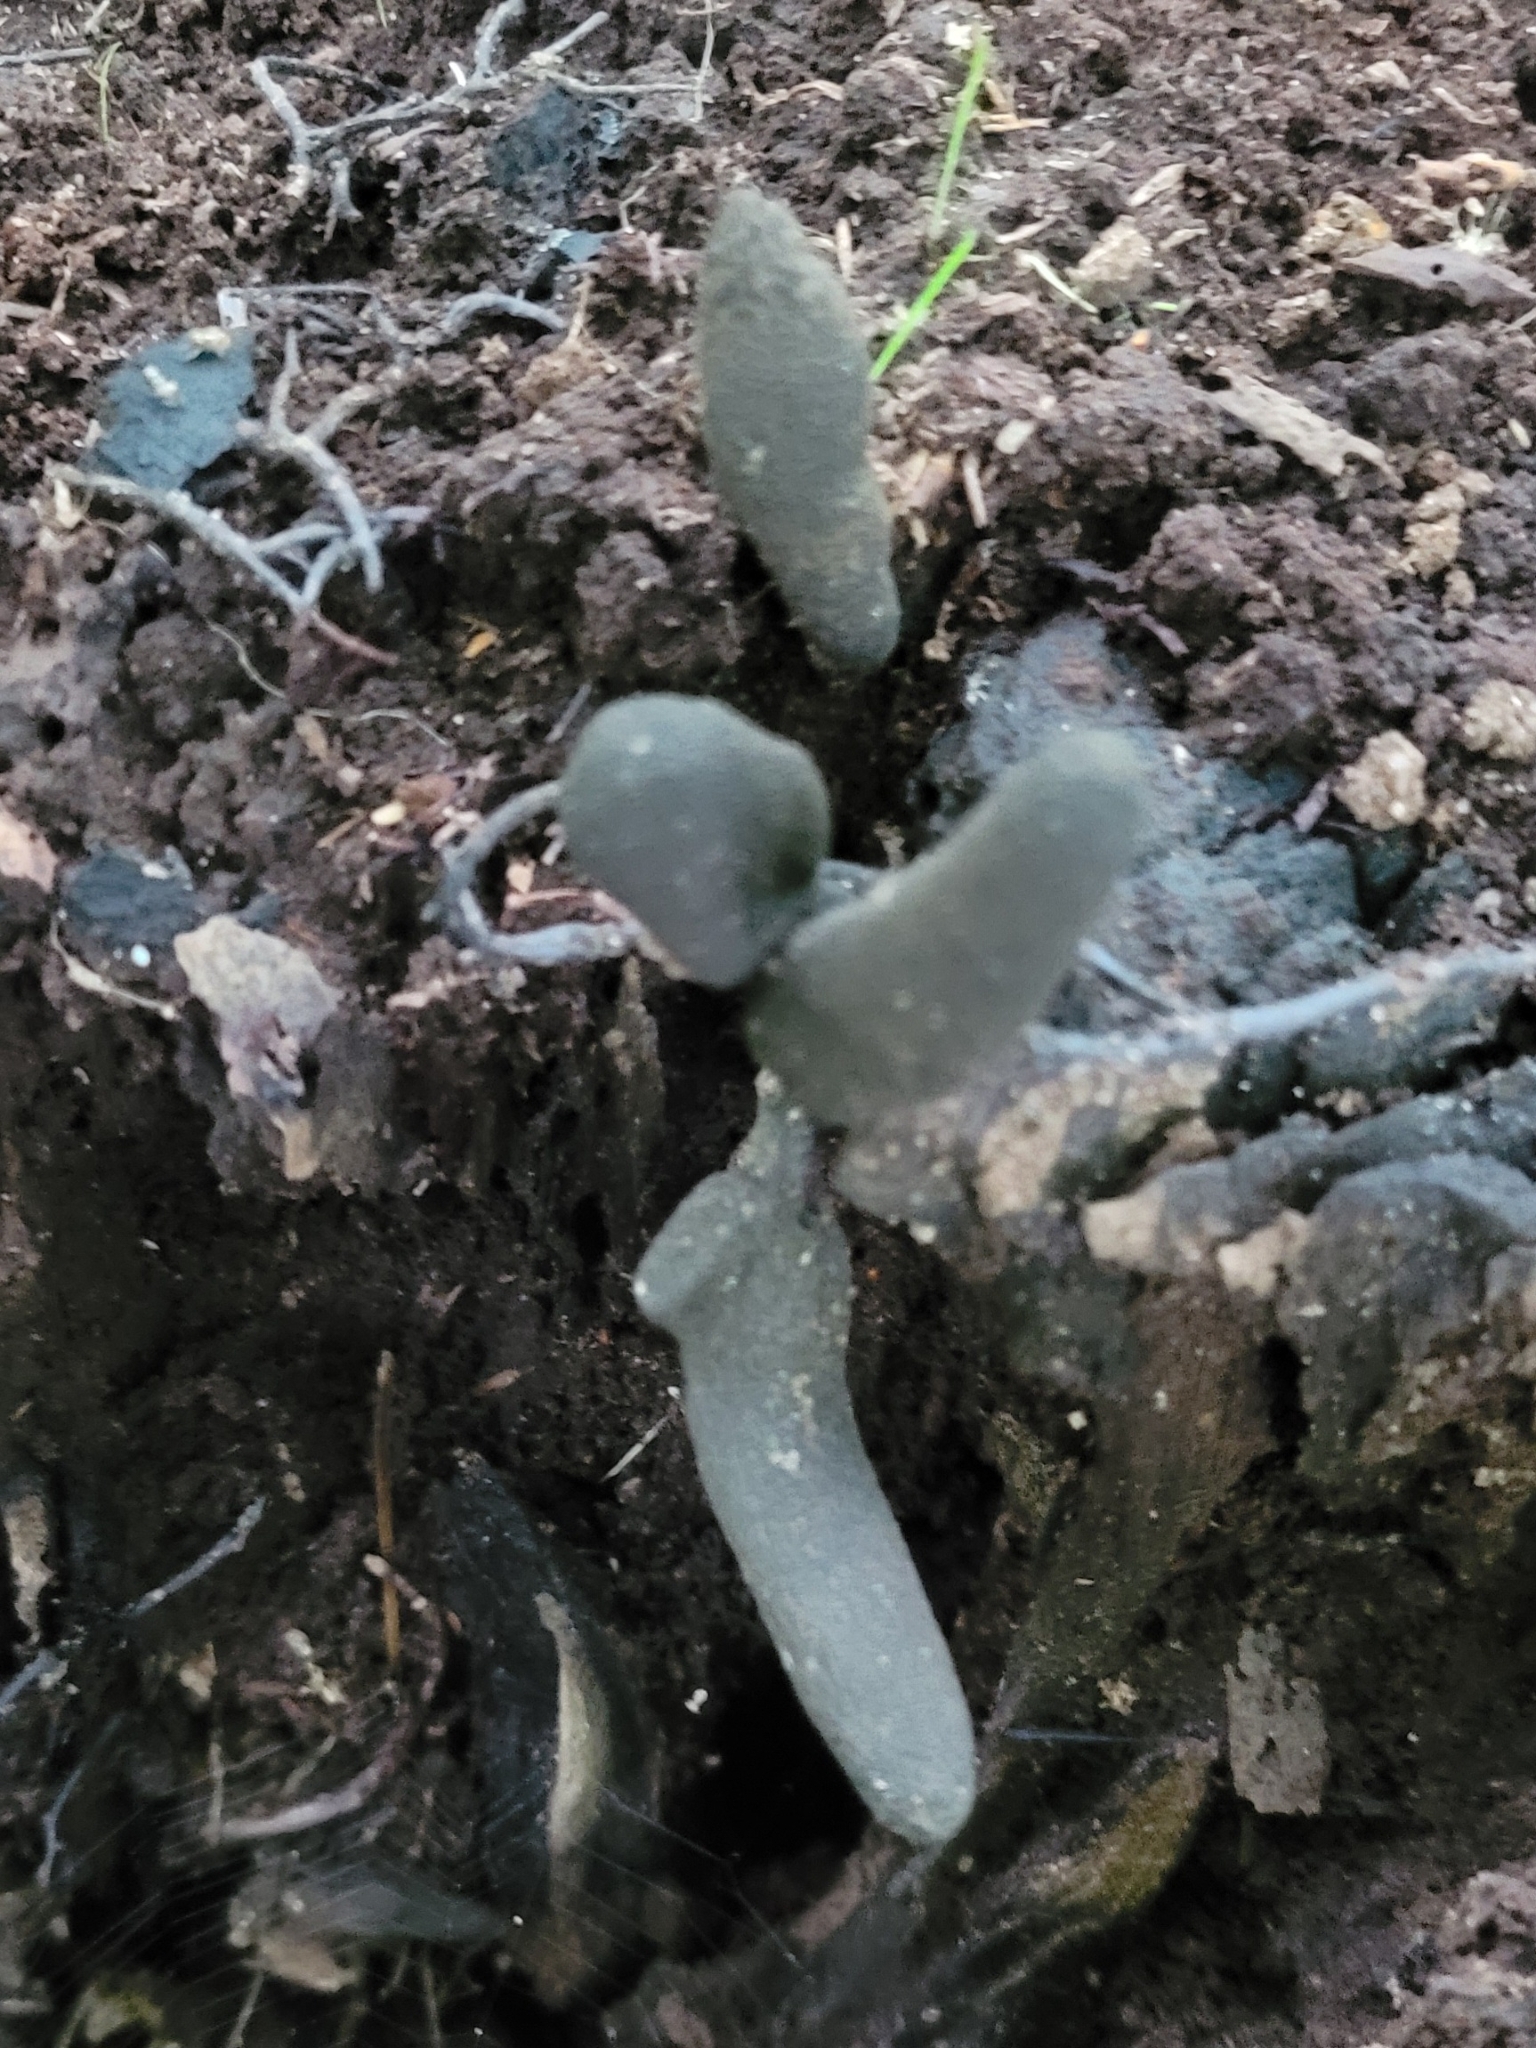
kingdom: Fungi
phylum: Ascomycota
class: Sordariomycetes
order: Xylariales
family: Xylariaceae
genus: Xylaria
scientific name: Xylaria polymorpha
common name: Dead man's fingers
